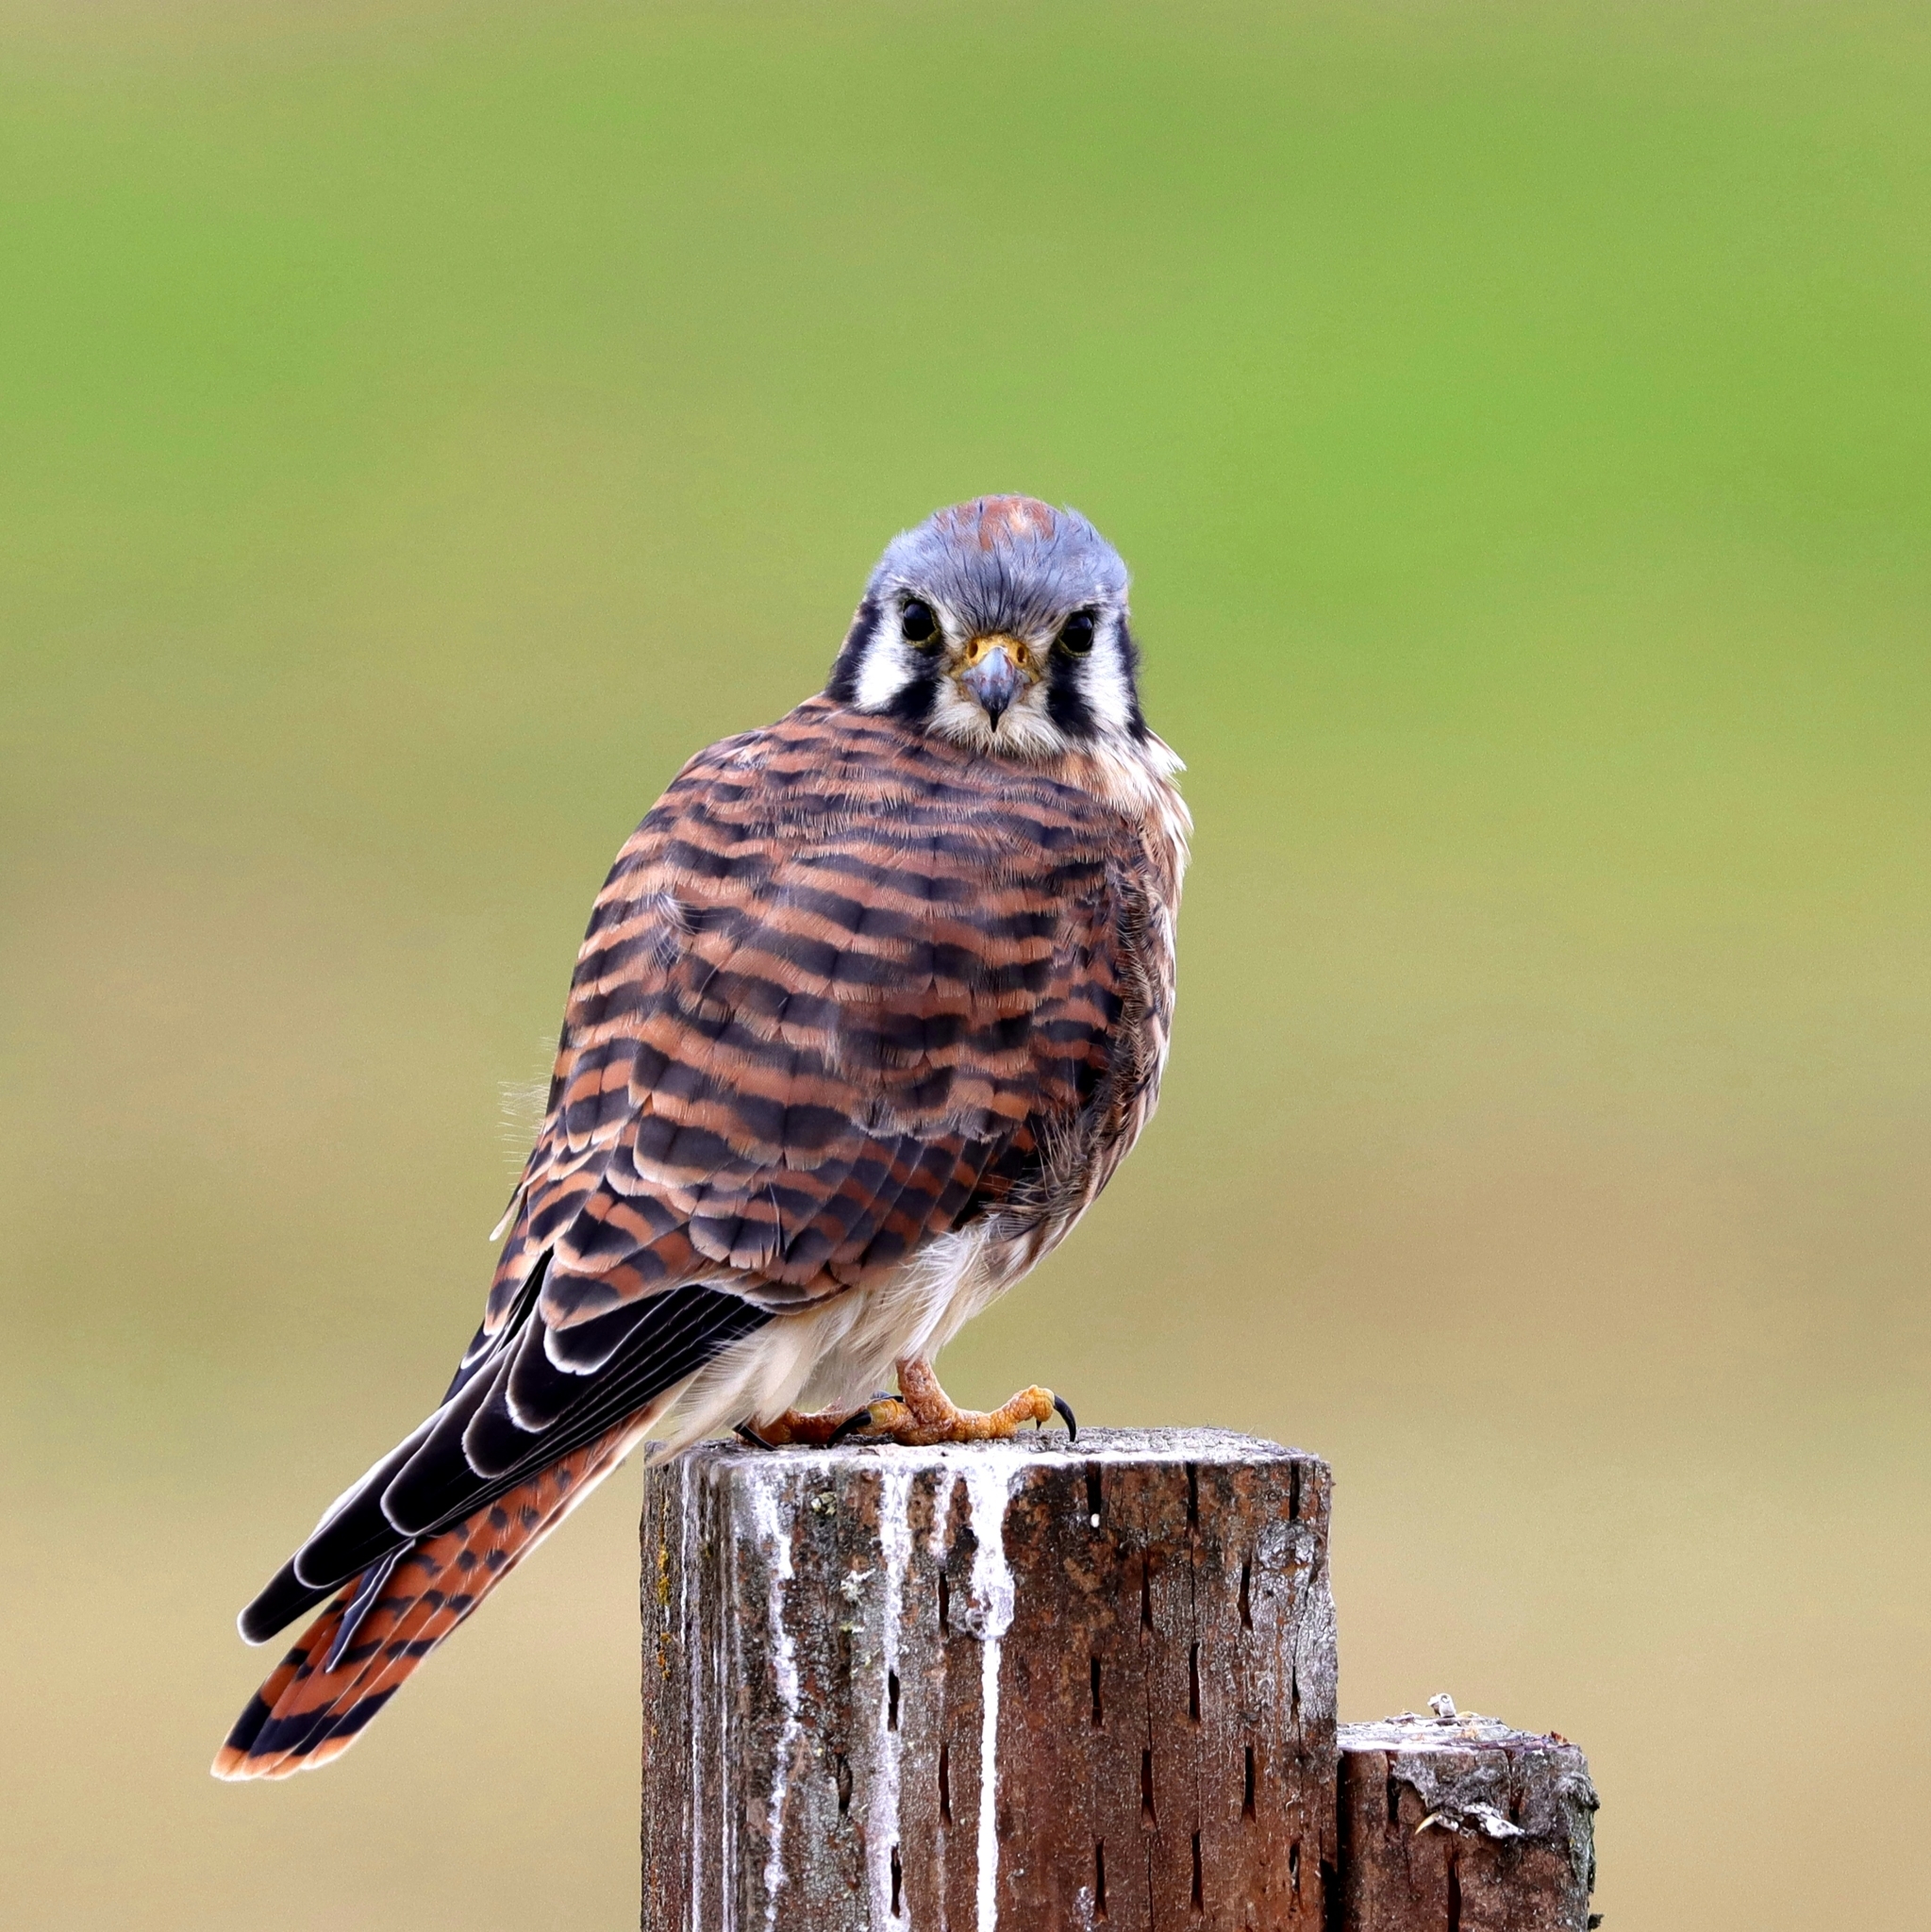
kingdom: Animalia
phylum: Chordata
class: Aves
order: Falconiformes
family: Falconidae
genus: Falco
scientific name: Falco sparverius
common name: American kestrel
